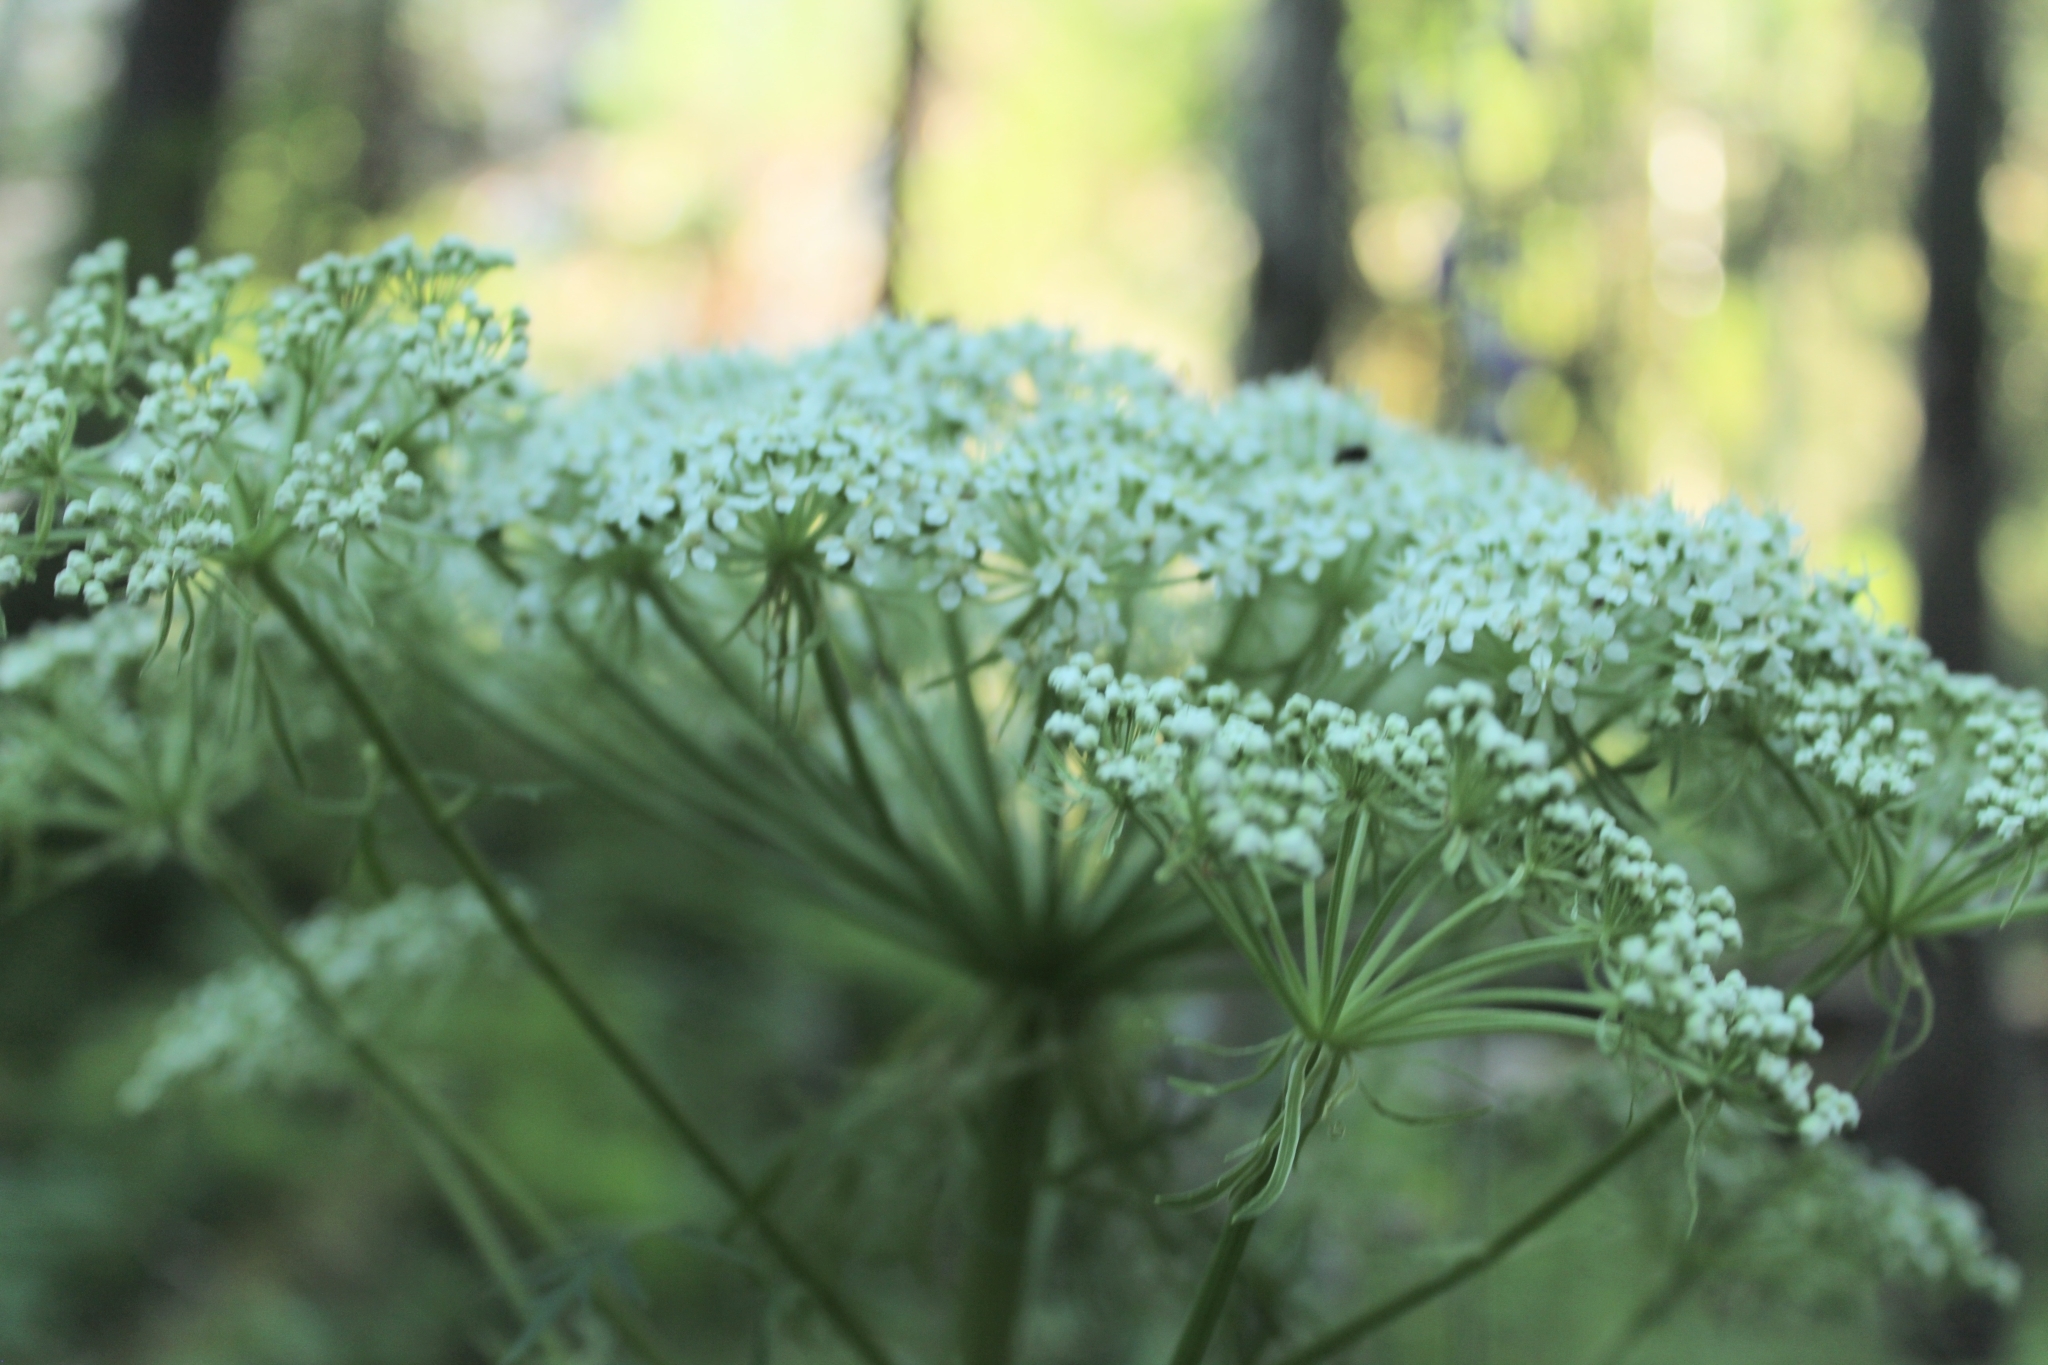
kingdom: Plantae
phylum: Tracheophyta
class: Magnoliopsida
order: Apiales
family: Apiaceae
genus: Pleurospermum
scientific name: Pleurospermum uralense
